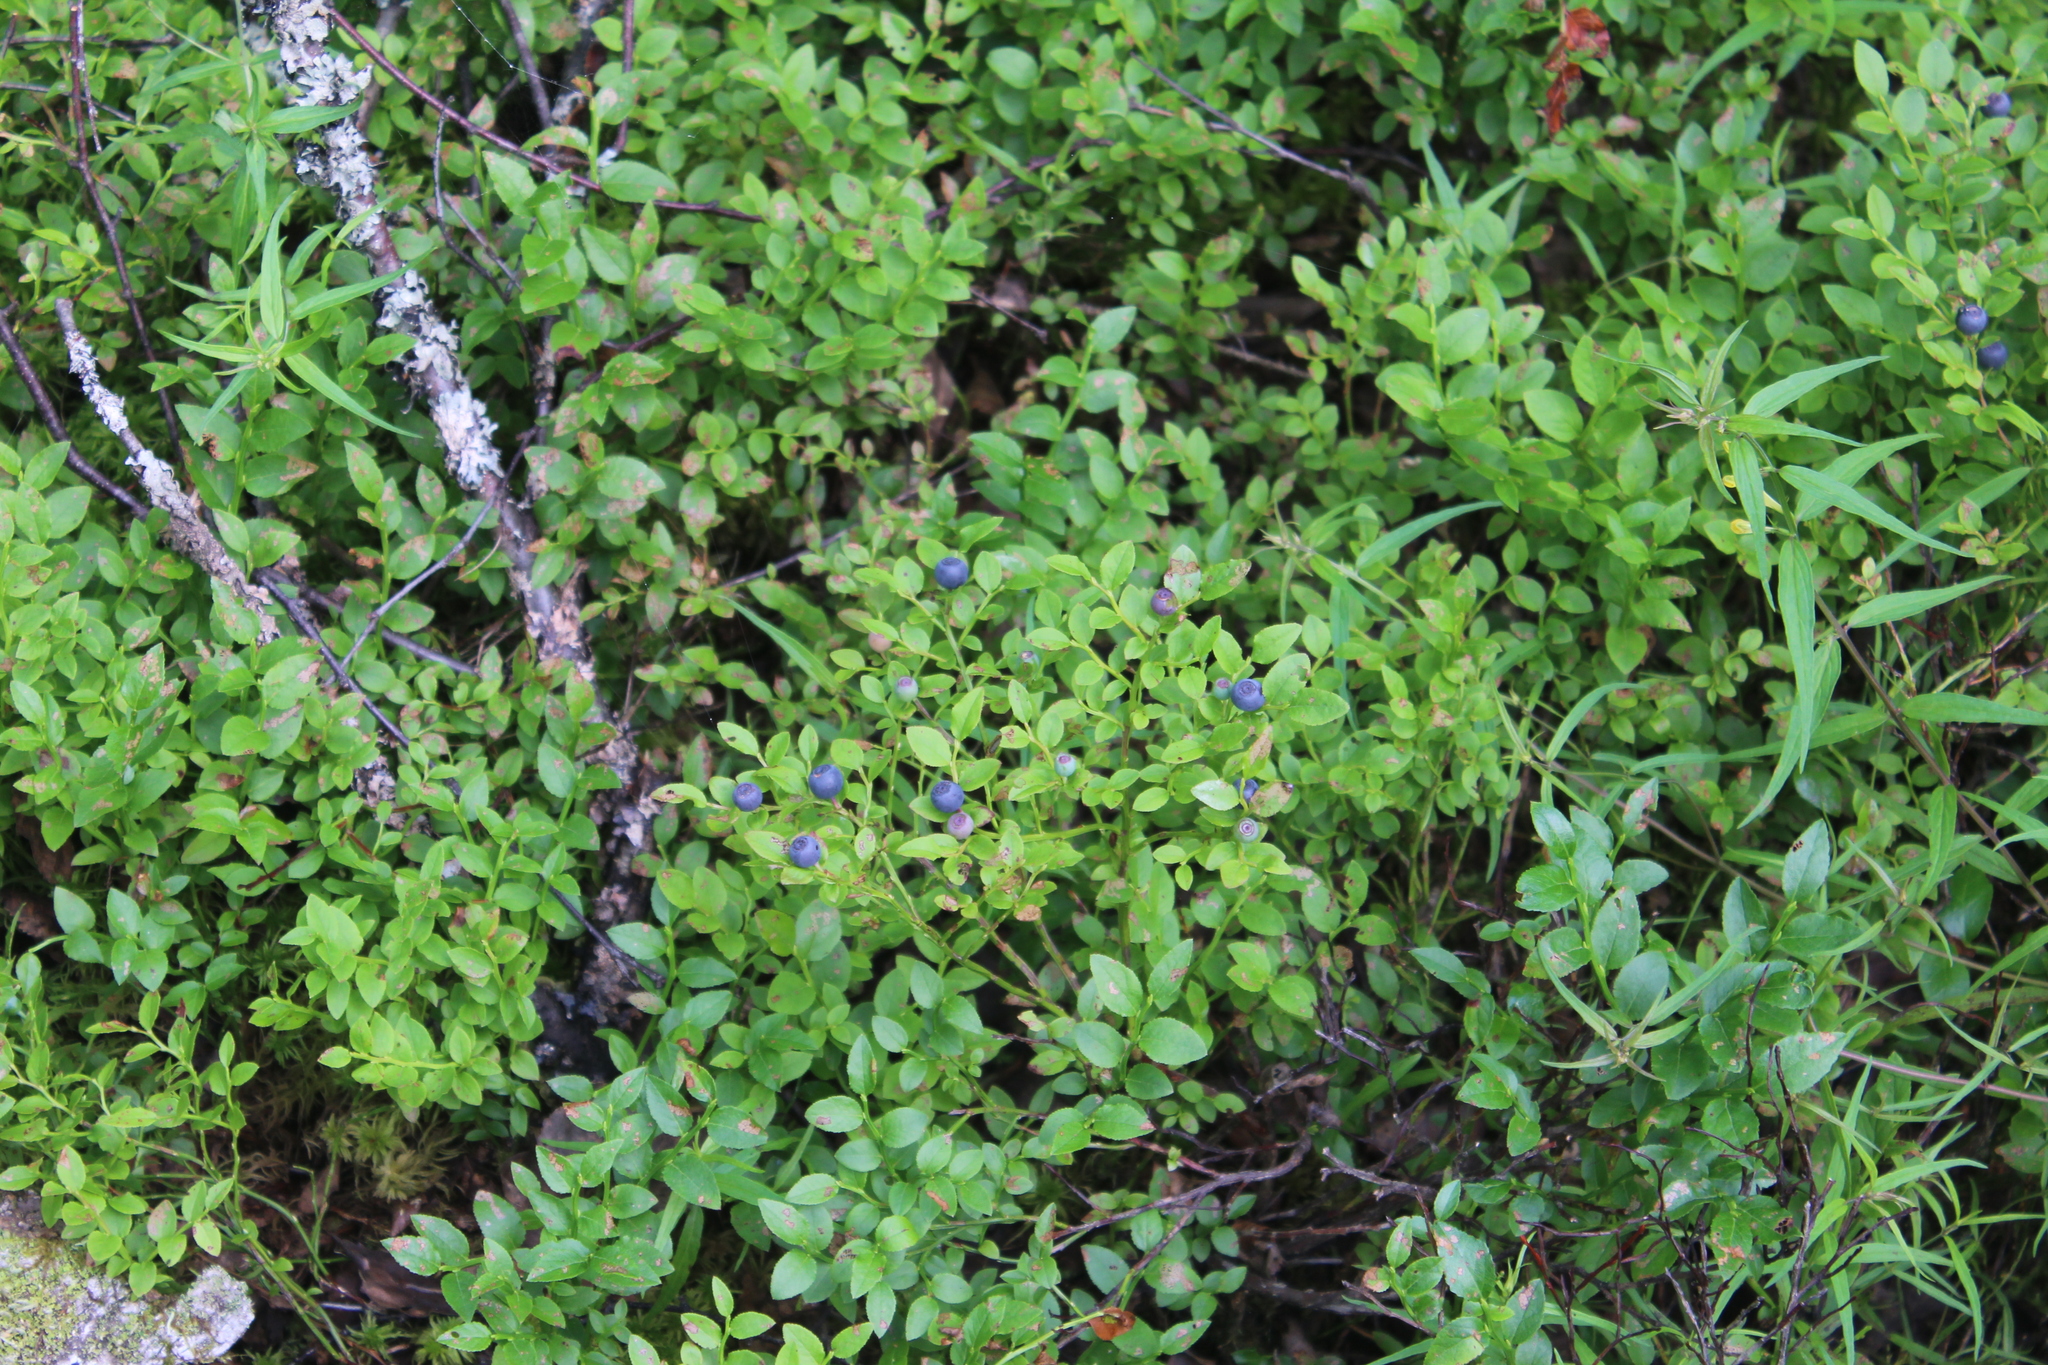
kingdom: Plantae
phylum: Tracheophyta
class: Magnoliopsida
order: Ericales
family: Ericaceae
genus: Vaccinium
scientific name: Vaccinium myrtillus
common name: Bilberry
